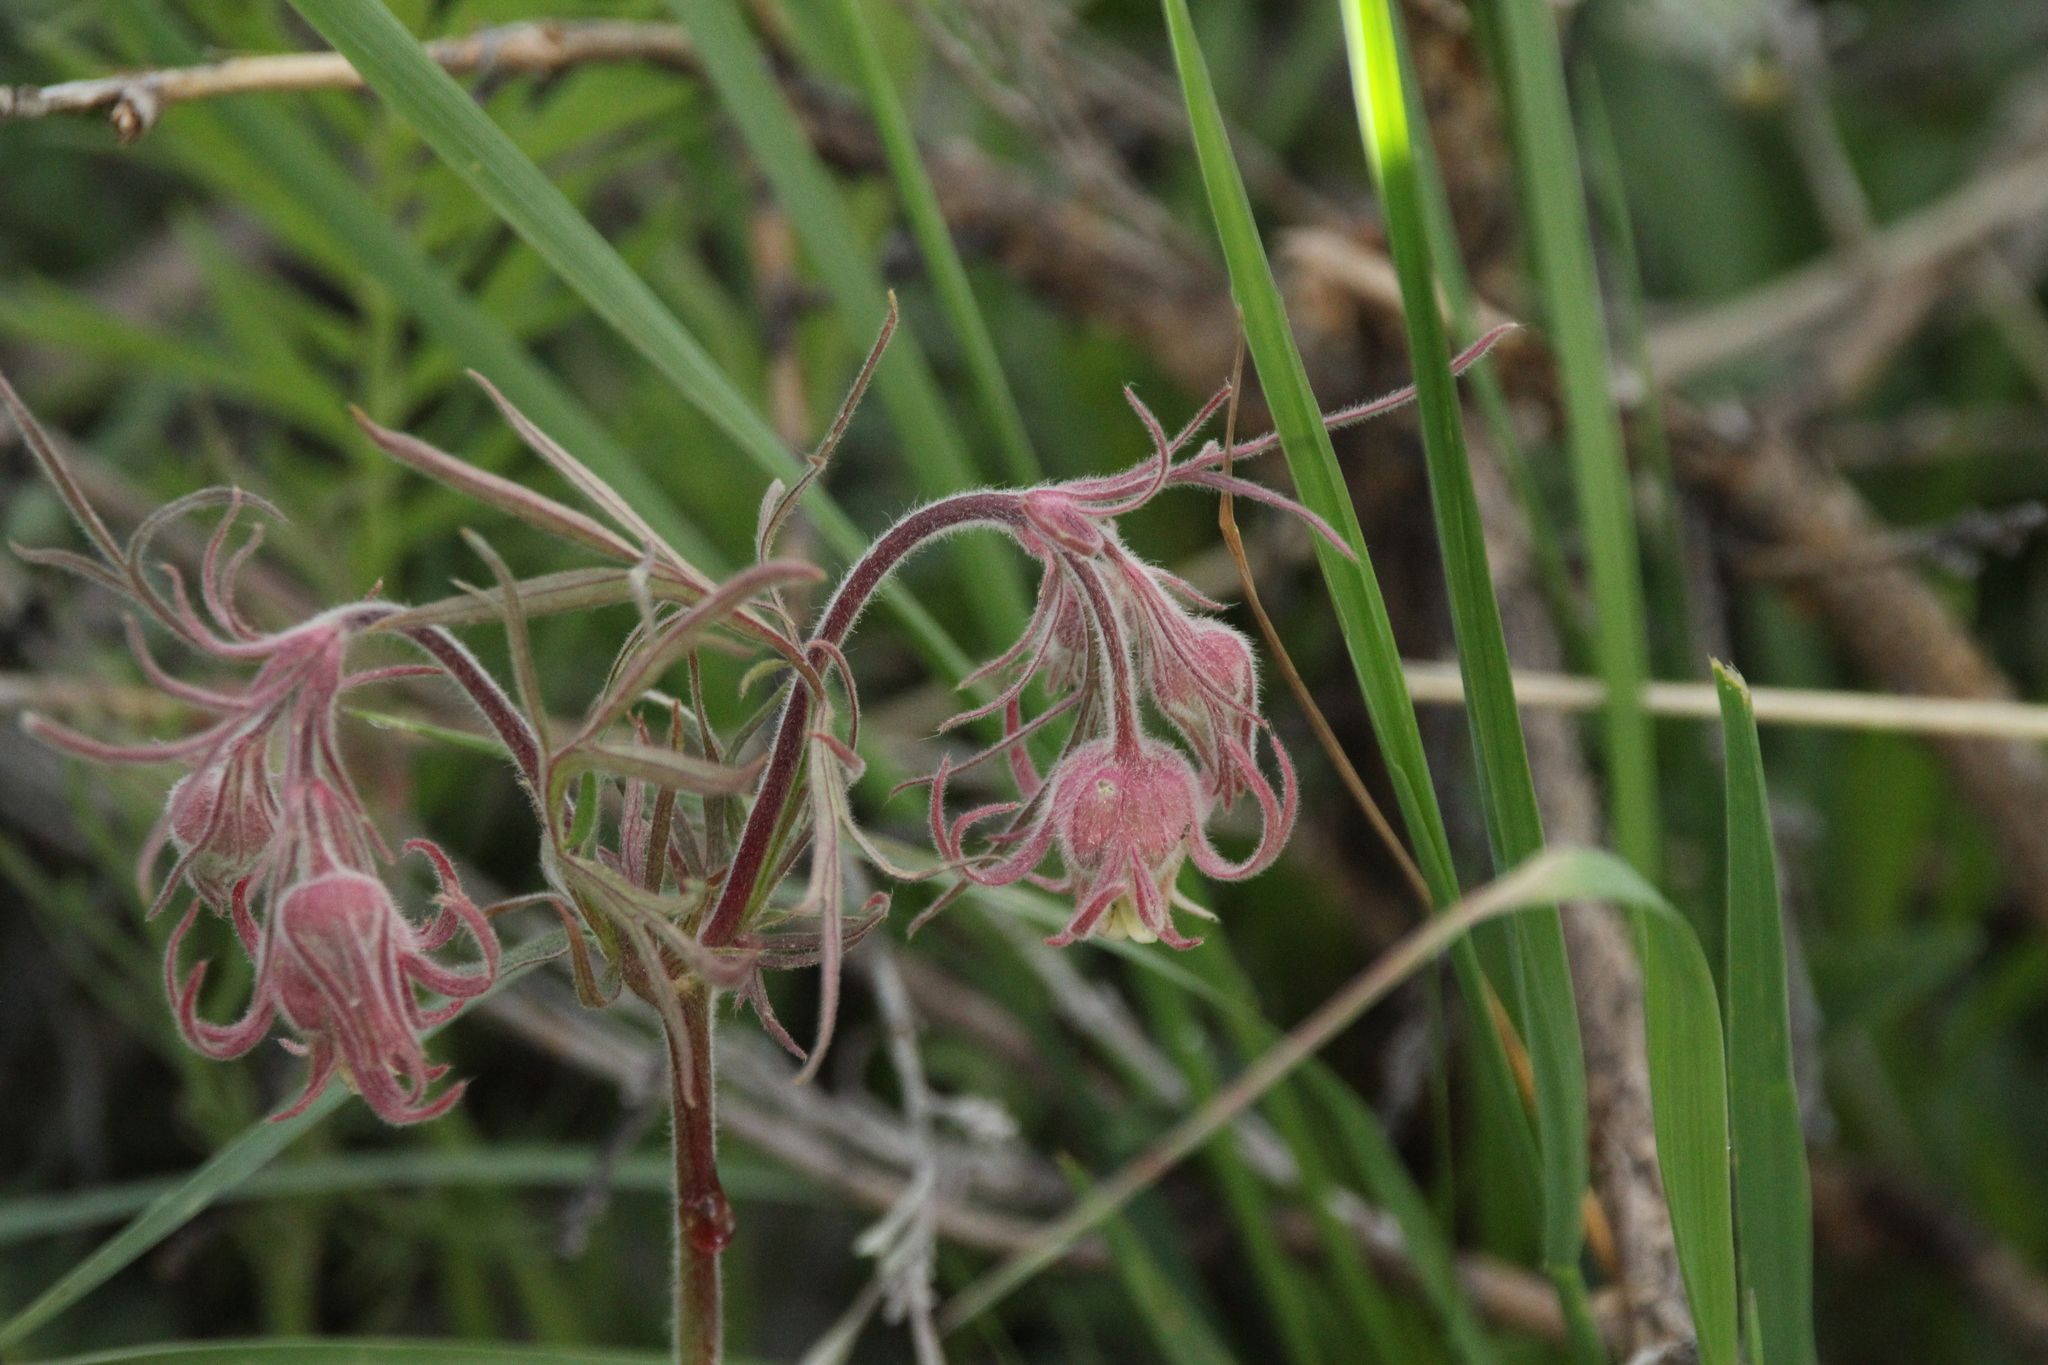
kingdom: Plantae
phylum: Tracheophyta
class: Magnoliopsida
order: Rosales
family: Rosaceae
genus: Geum
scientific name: Geum triflorum
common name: Old man's whiskers
